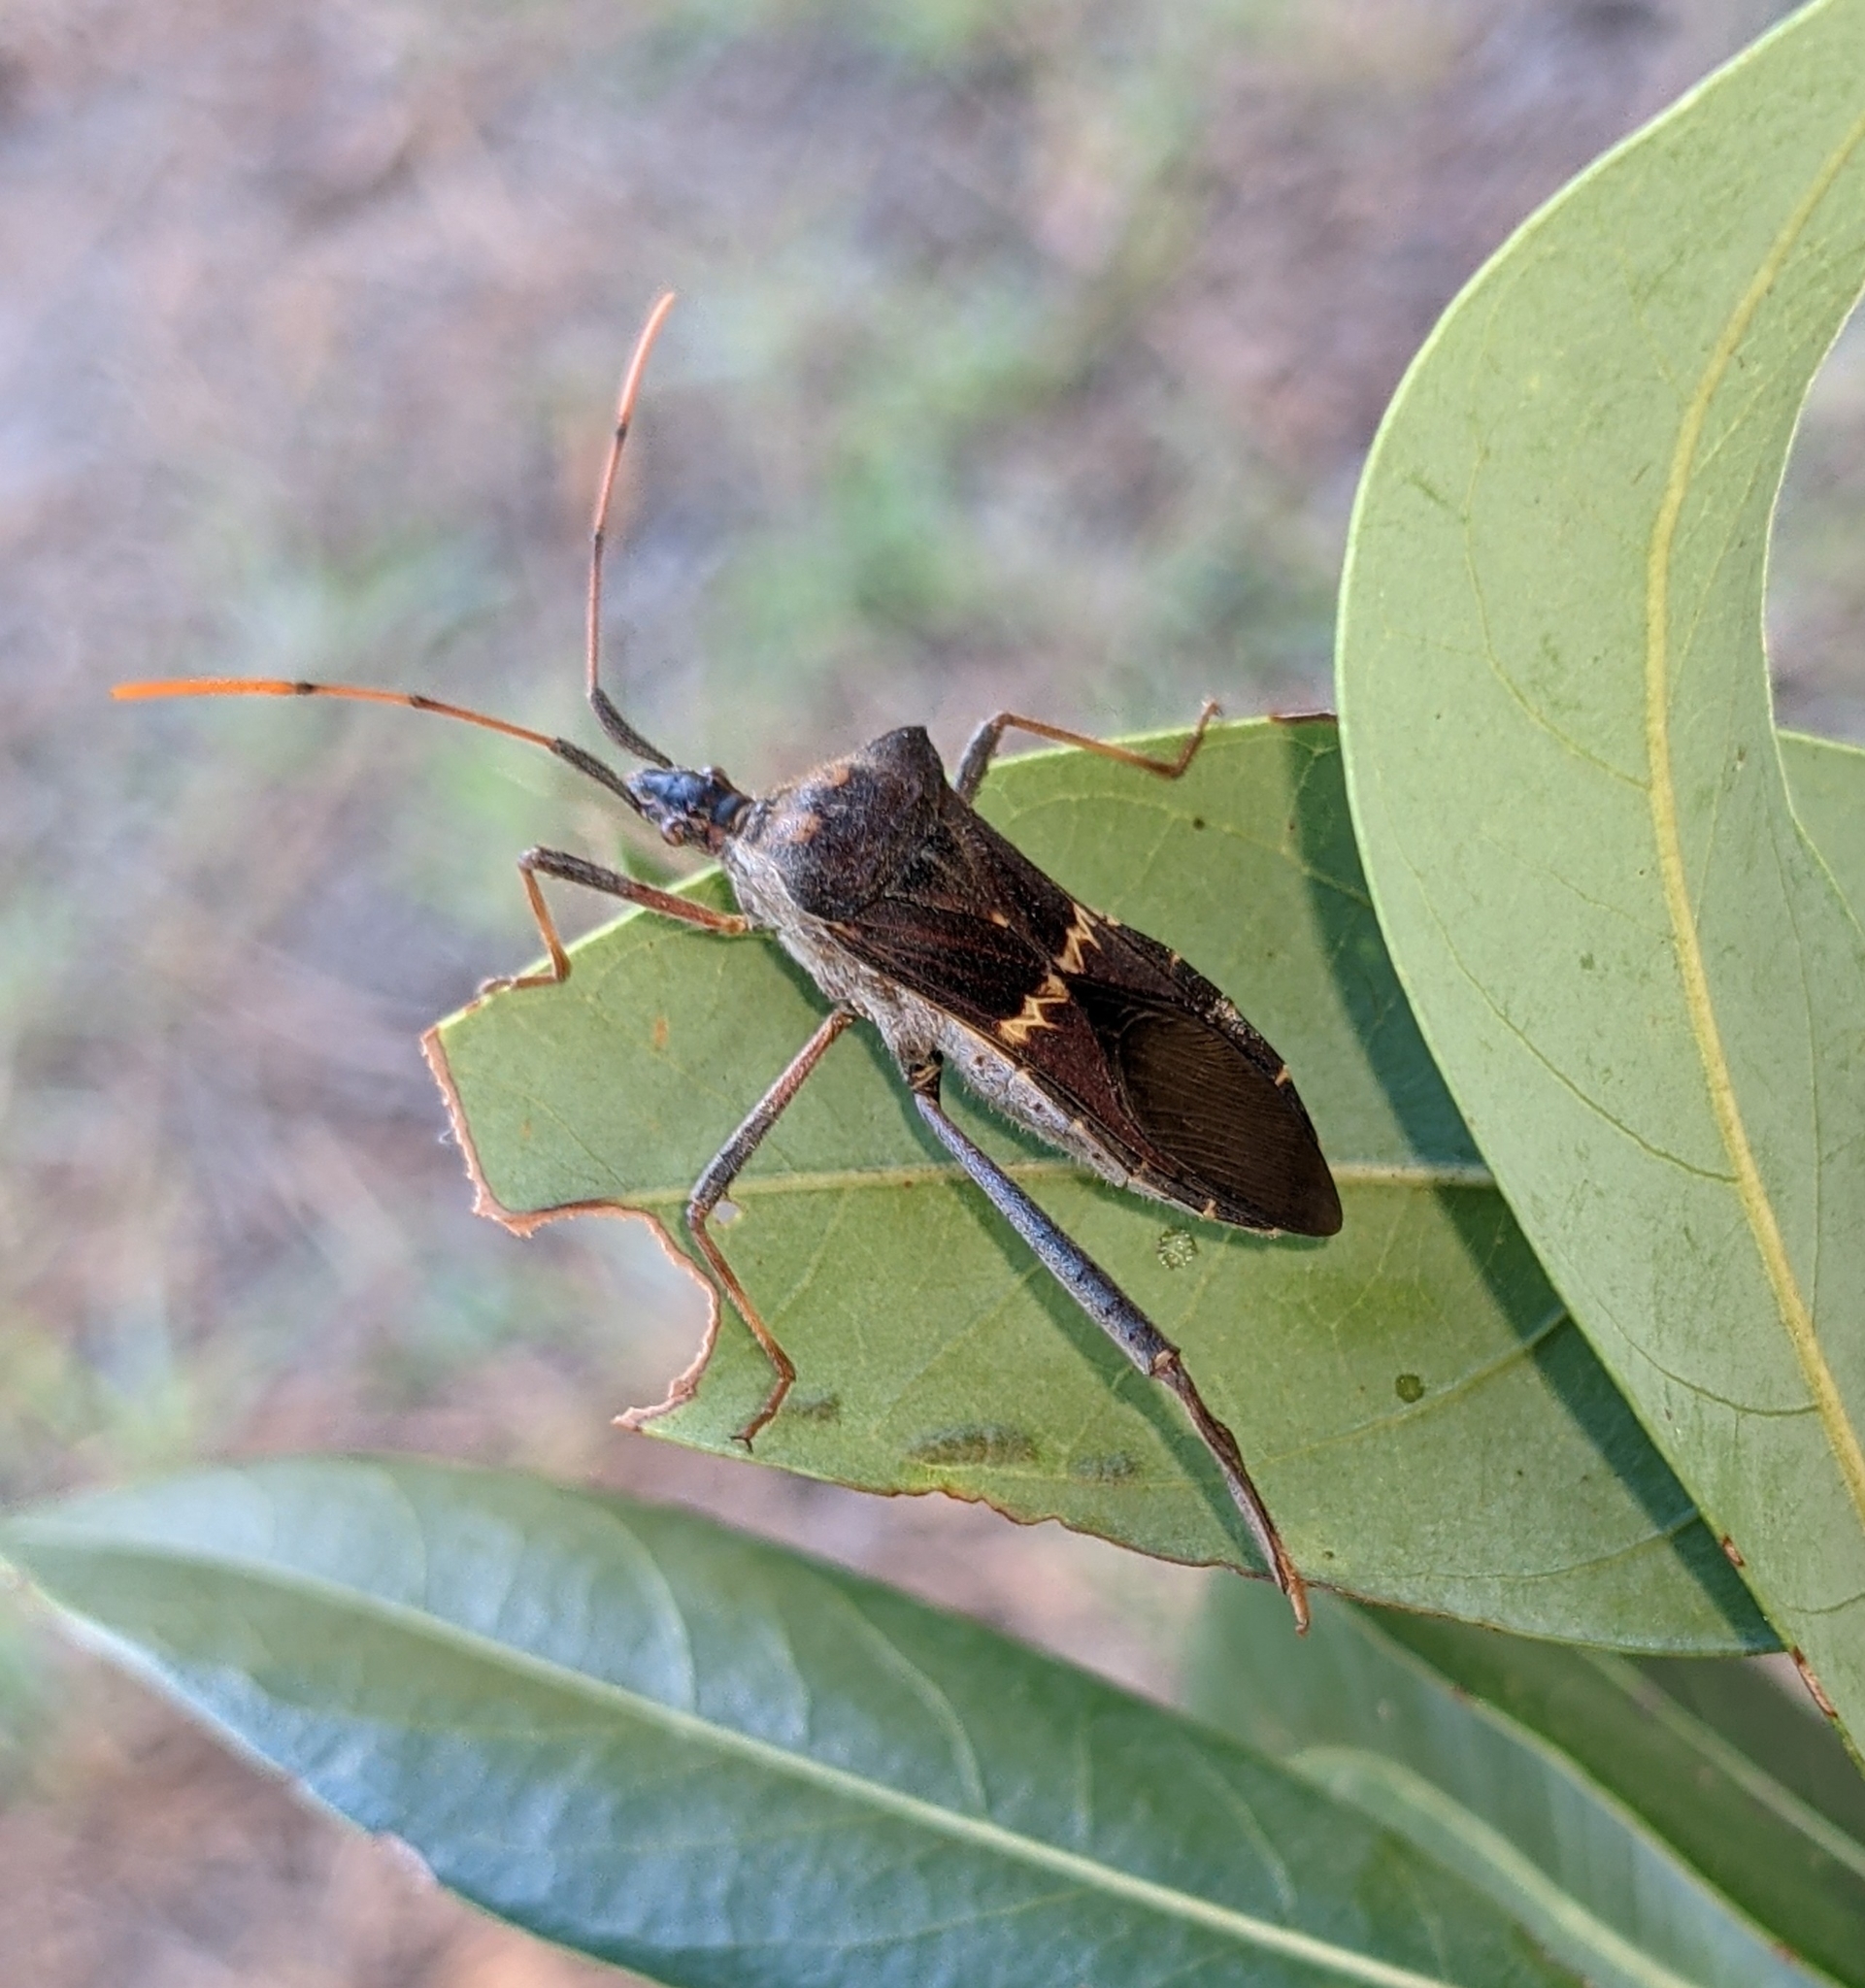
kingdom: Animalia
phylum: Arthropoda
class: Insecta
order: Hemiptera
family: Coreidae
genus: Leptoglossus
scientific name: Leptoglossus zonatus
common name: Large-legged bug
